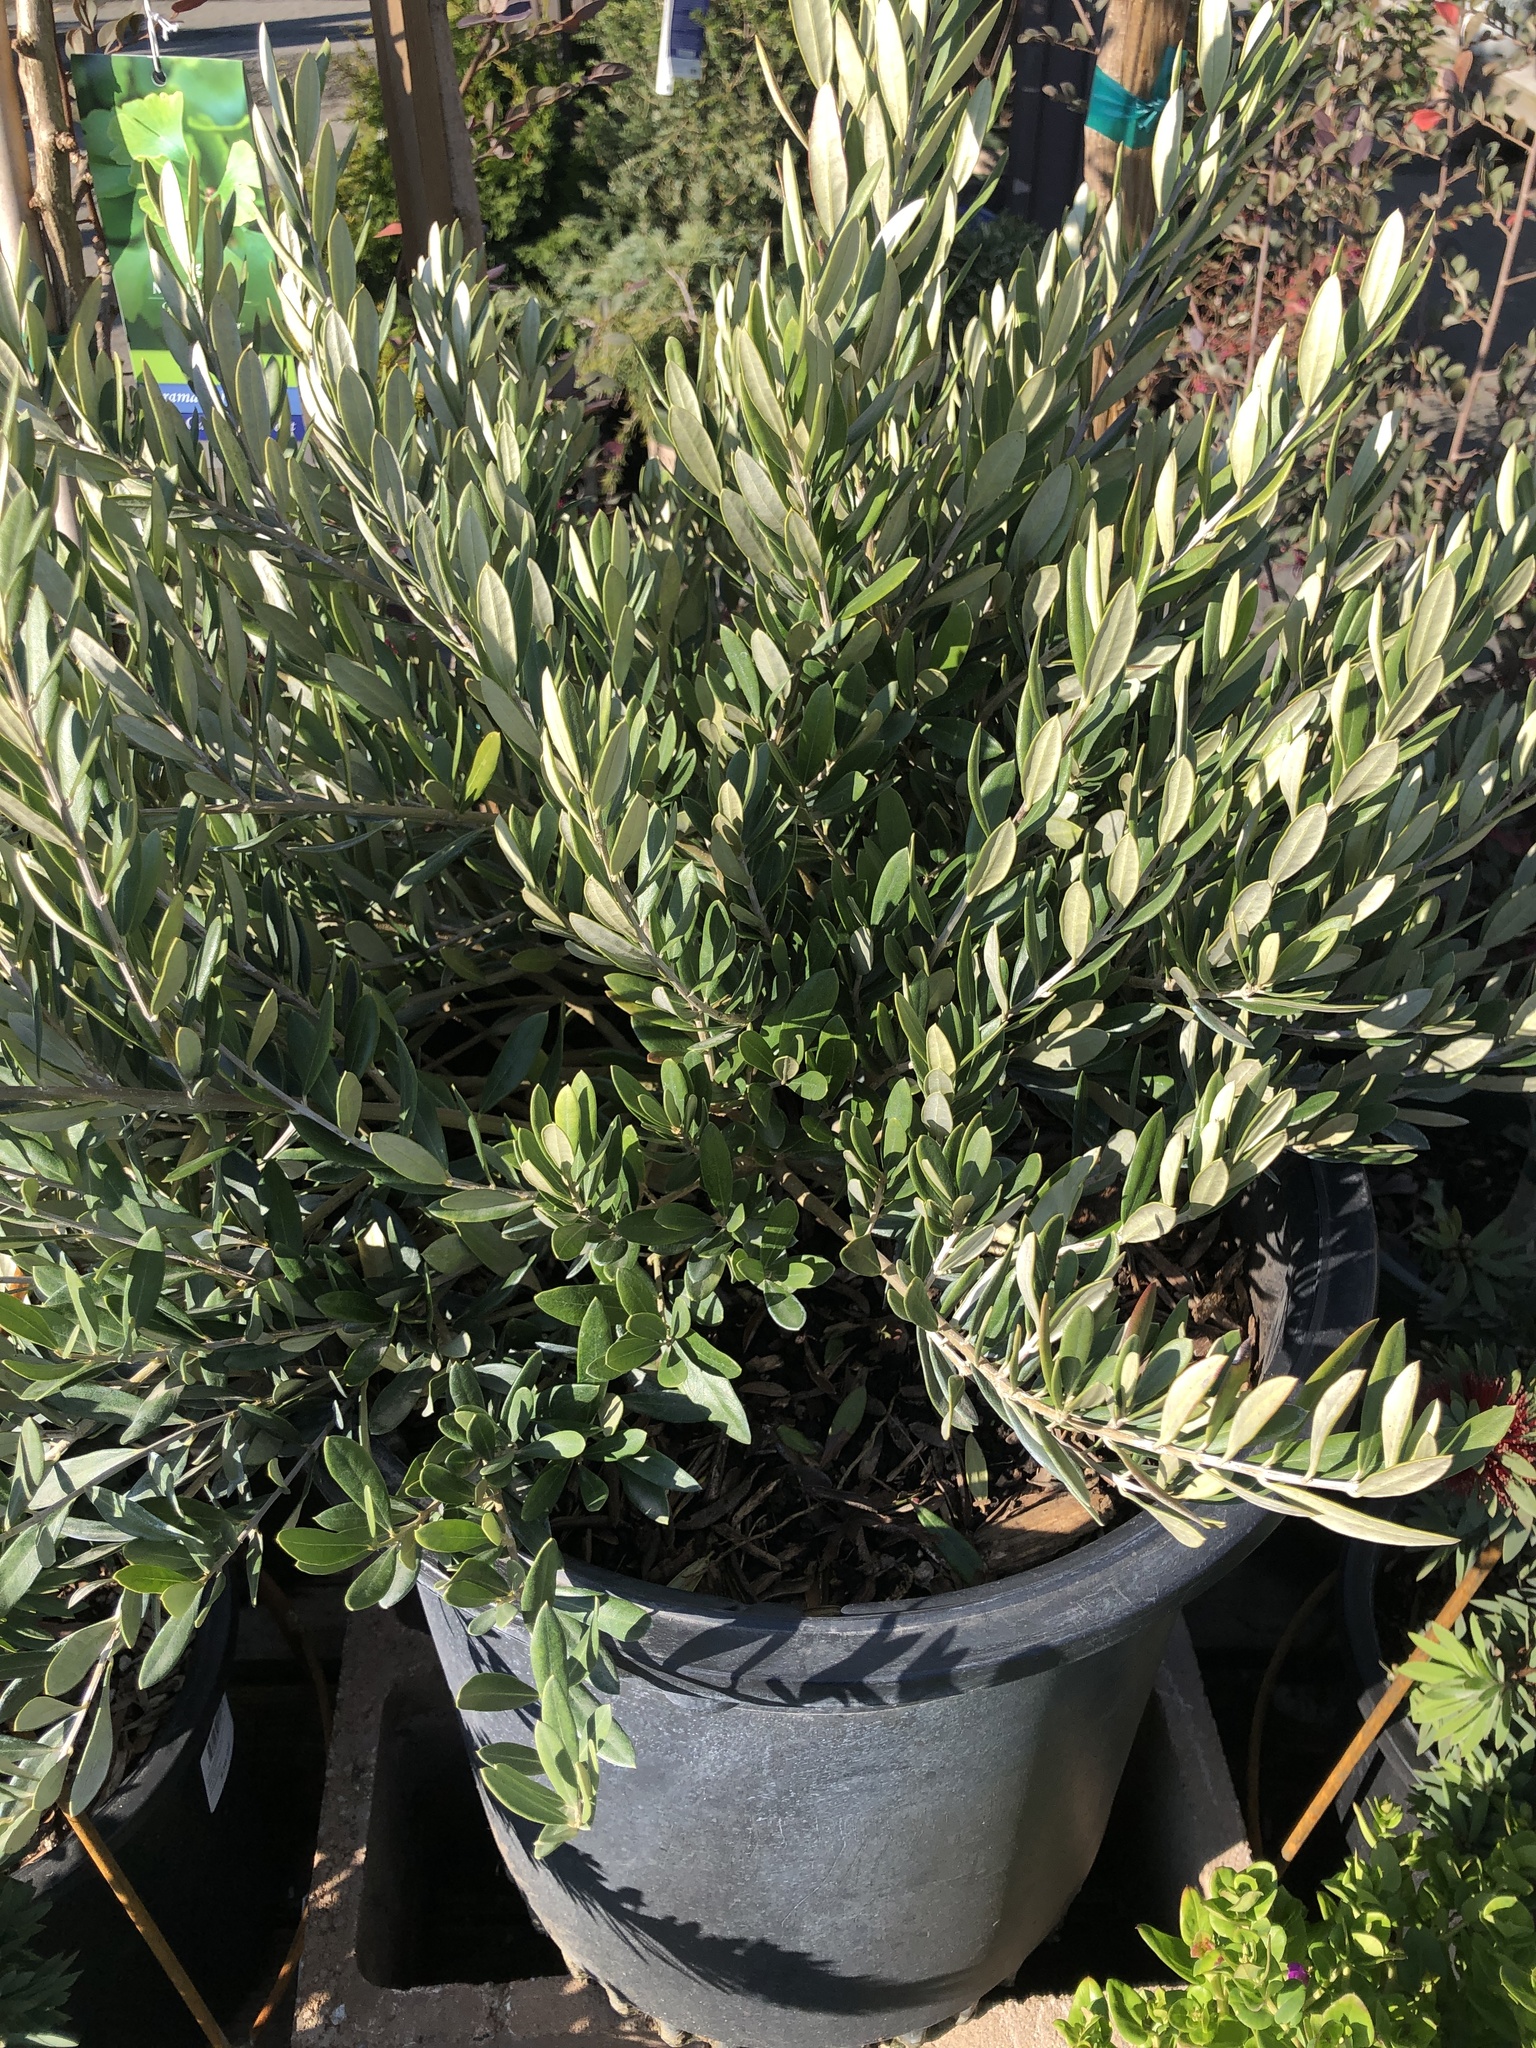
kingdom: Fungi
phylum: Ascomycota
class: Dothideomycetes
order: Botryosphaeriales
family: Botryosphaeriaceae
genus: Dothiora
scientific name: Dothiora oleae
